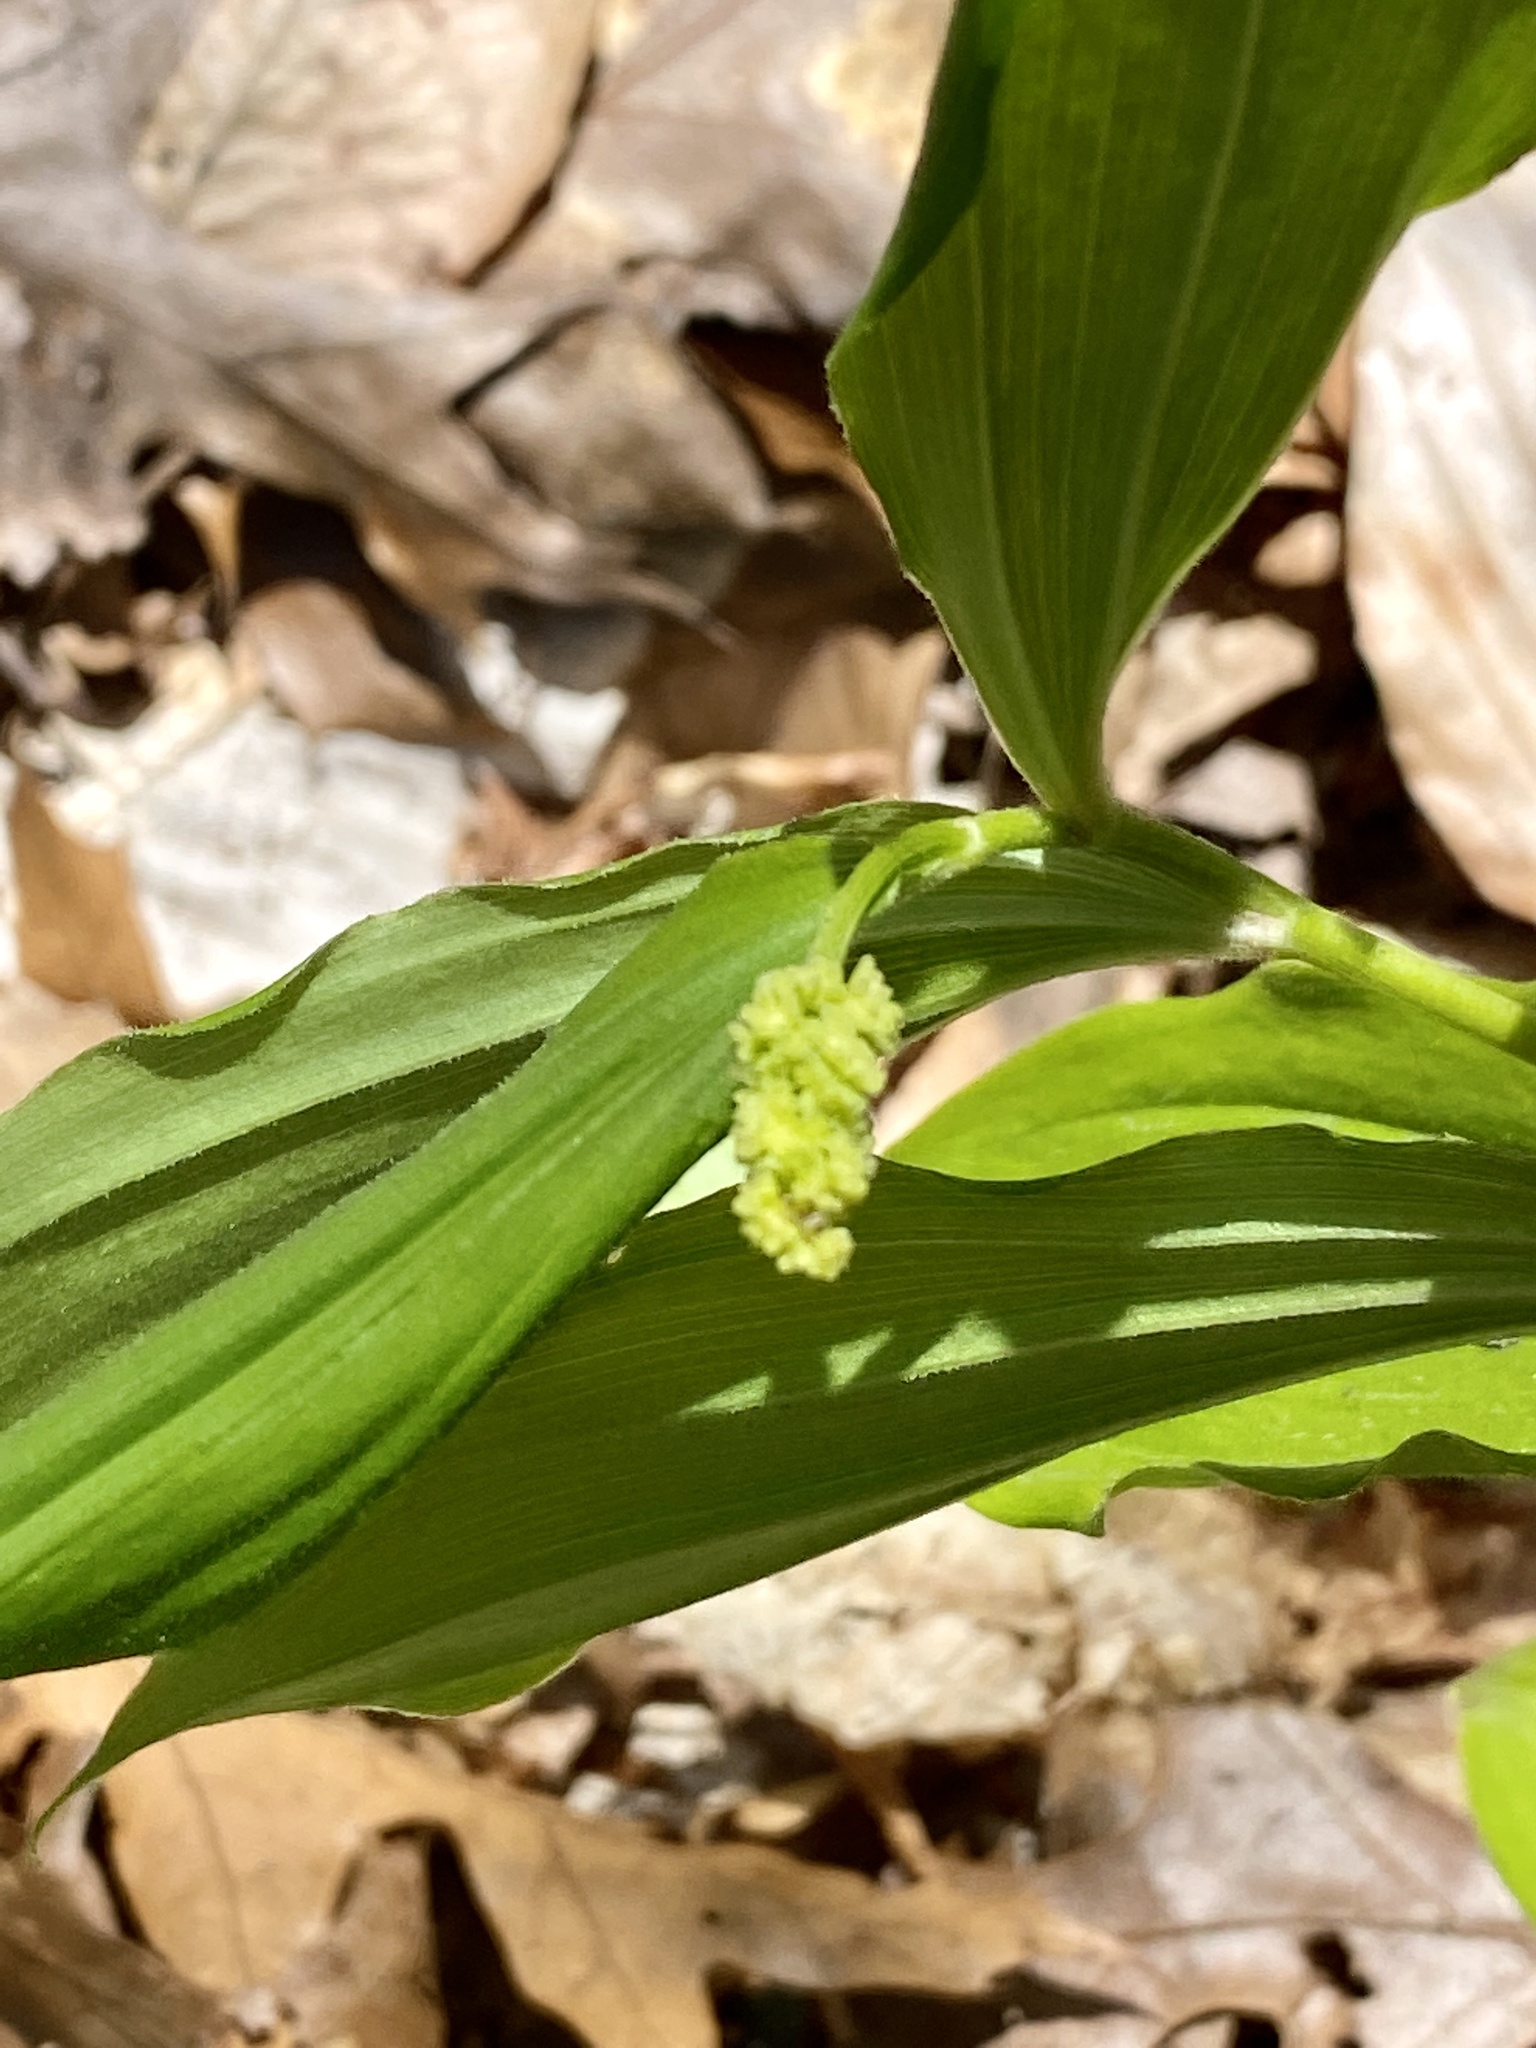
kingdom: Plantae
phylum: Tracheophyta
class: Liliopsida
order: Asparagales
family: Asparagaceae
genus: Maianthemum
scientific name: Maianthemum racemosum
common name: False spikenard
